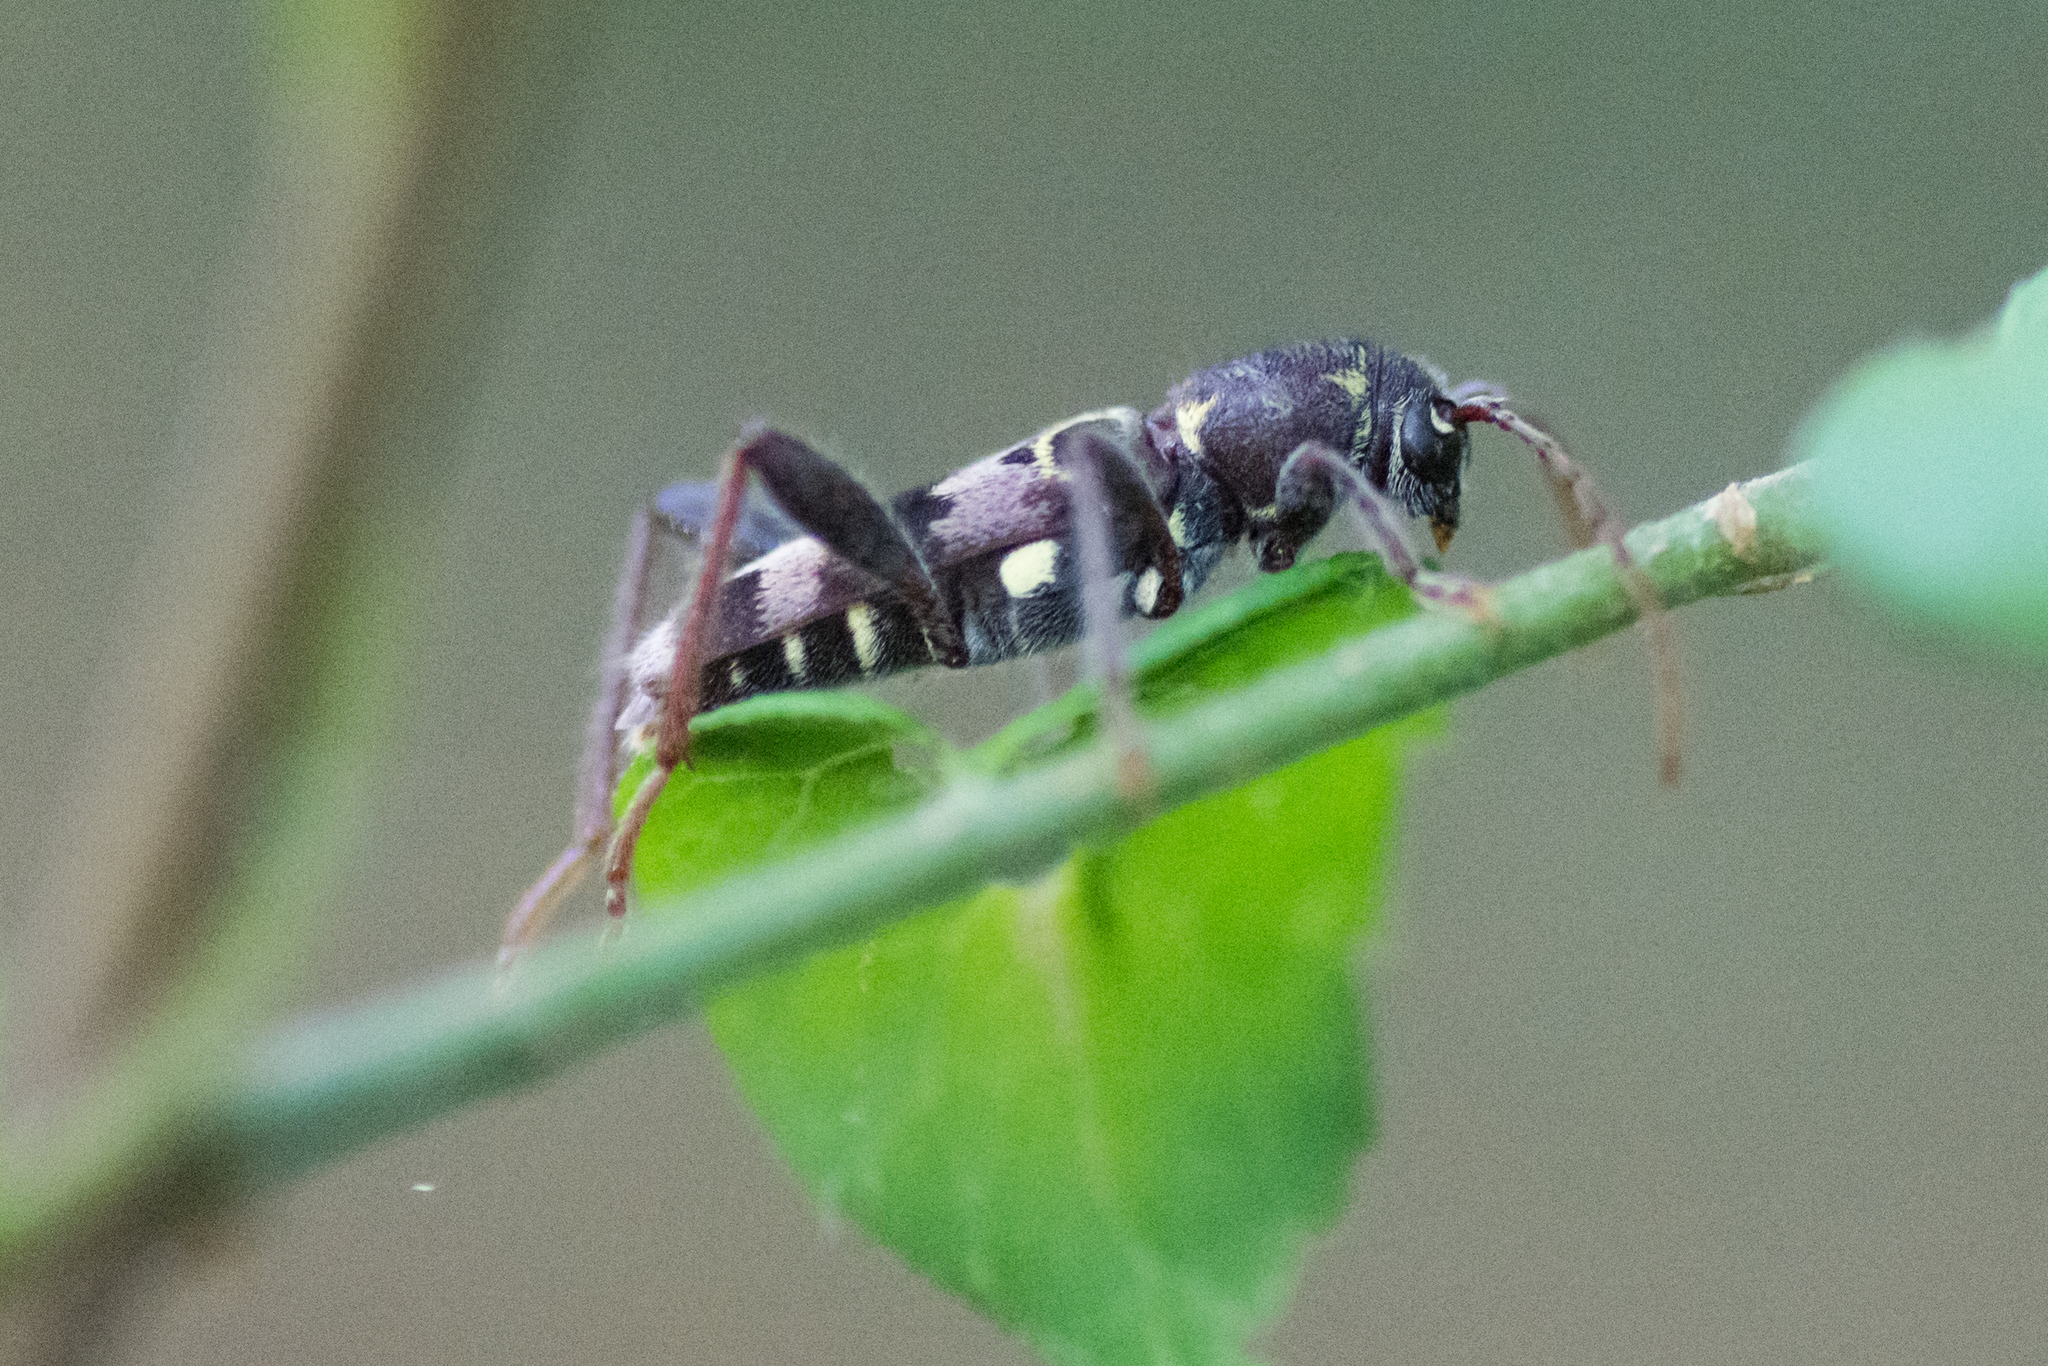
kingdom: Animalia
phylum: Arthropoda
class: Insecta
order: Coleoptera
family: Cerambycidae
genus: Xylotrechus
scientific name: Xylotrechus colonus
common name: Long-horned beetle
